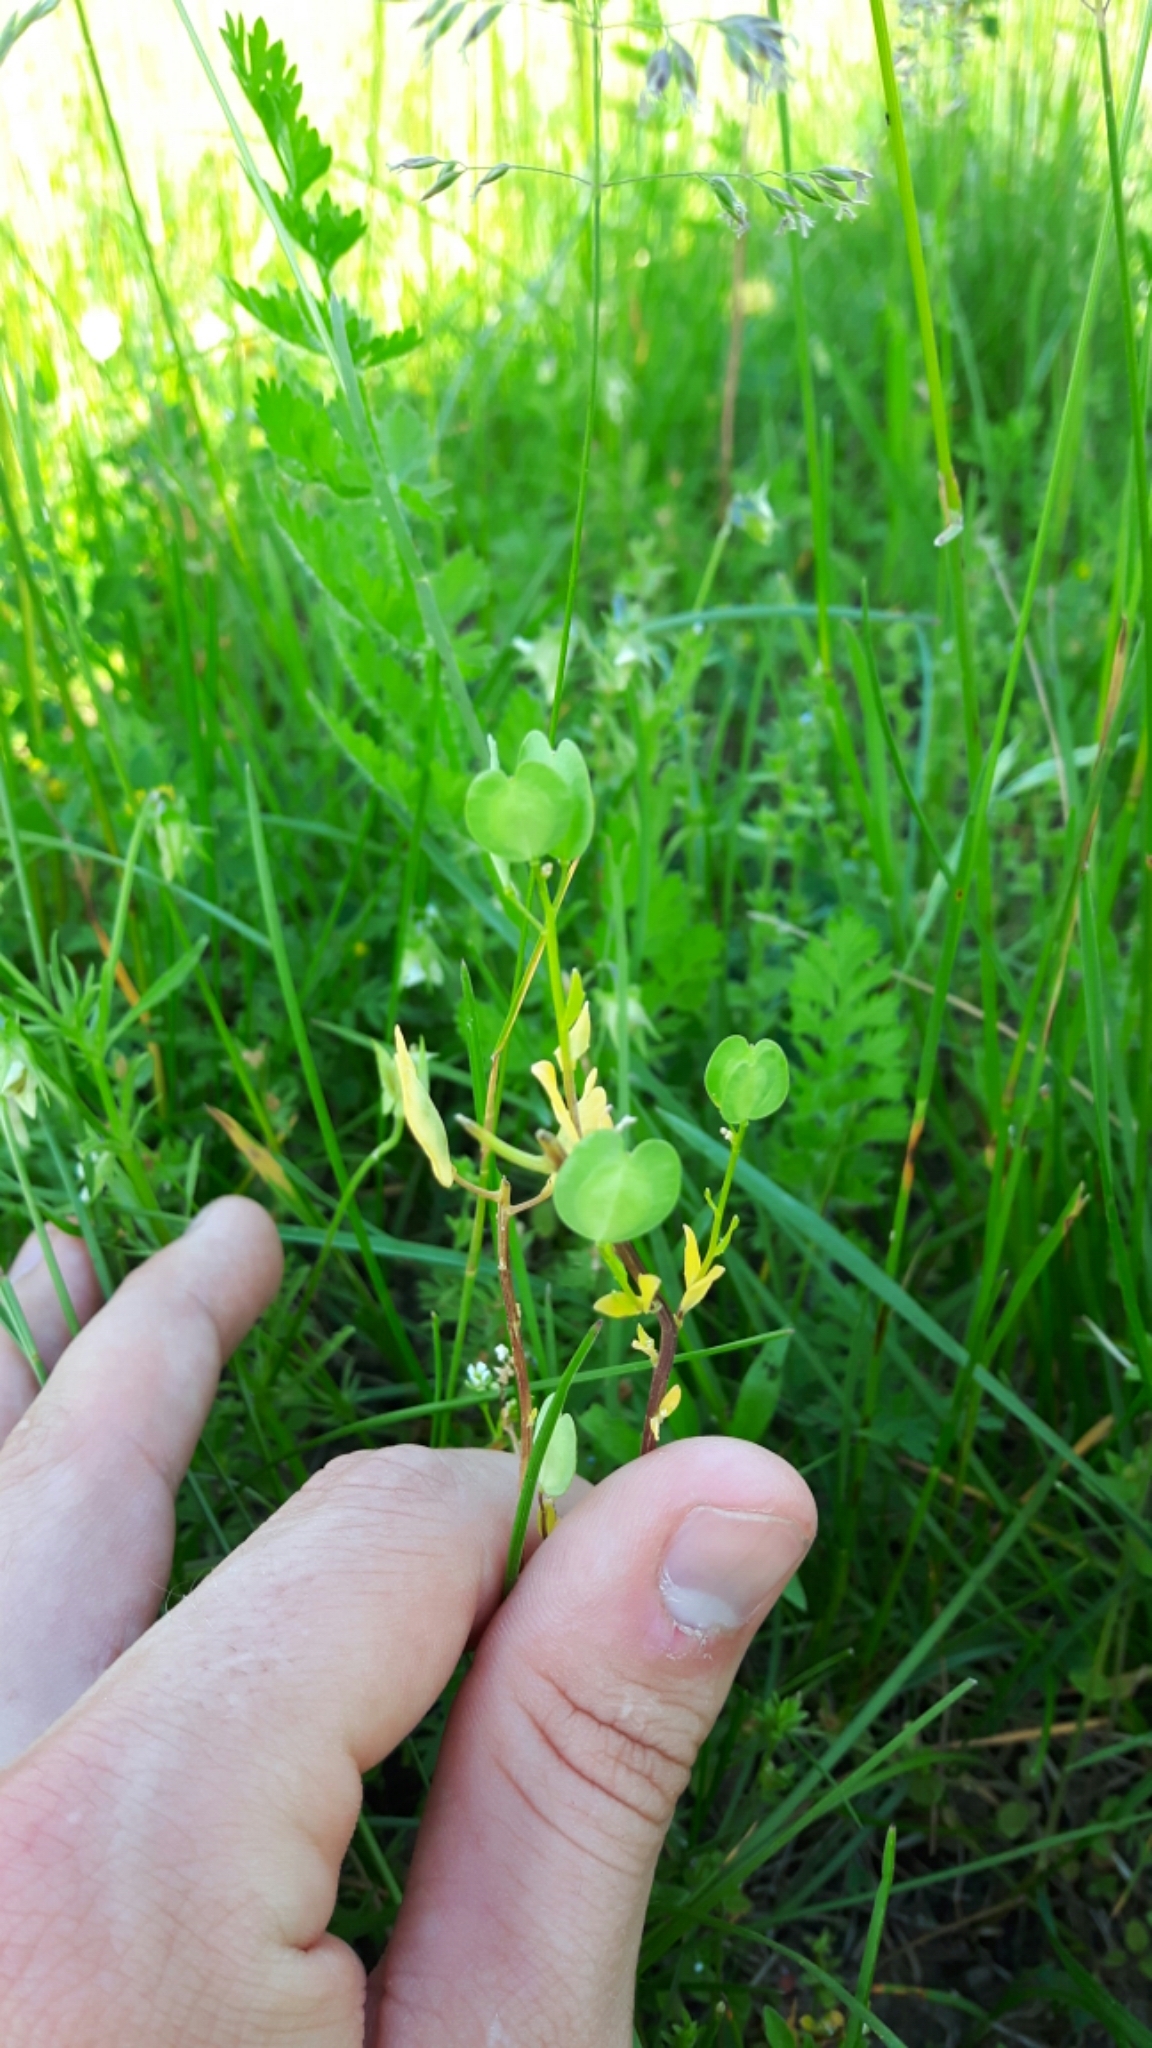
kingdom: Plantae
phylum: Tracheophyta
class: Magnoliopsida
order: Brassicales
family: Brassicaceae
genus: Thlaspi
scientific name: Thlaspi arvense
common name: Field pennycress
